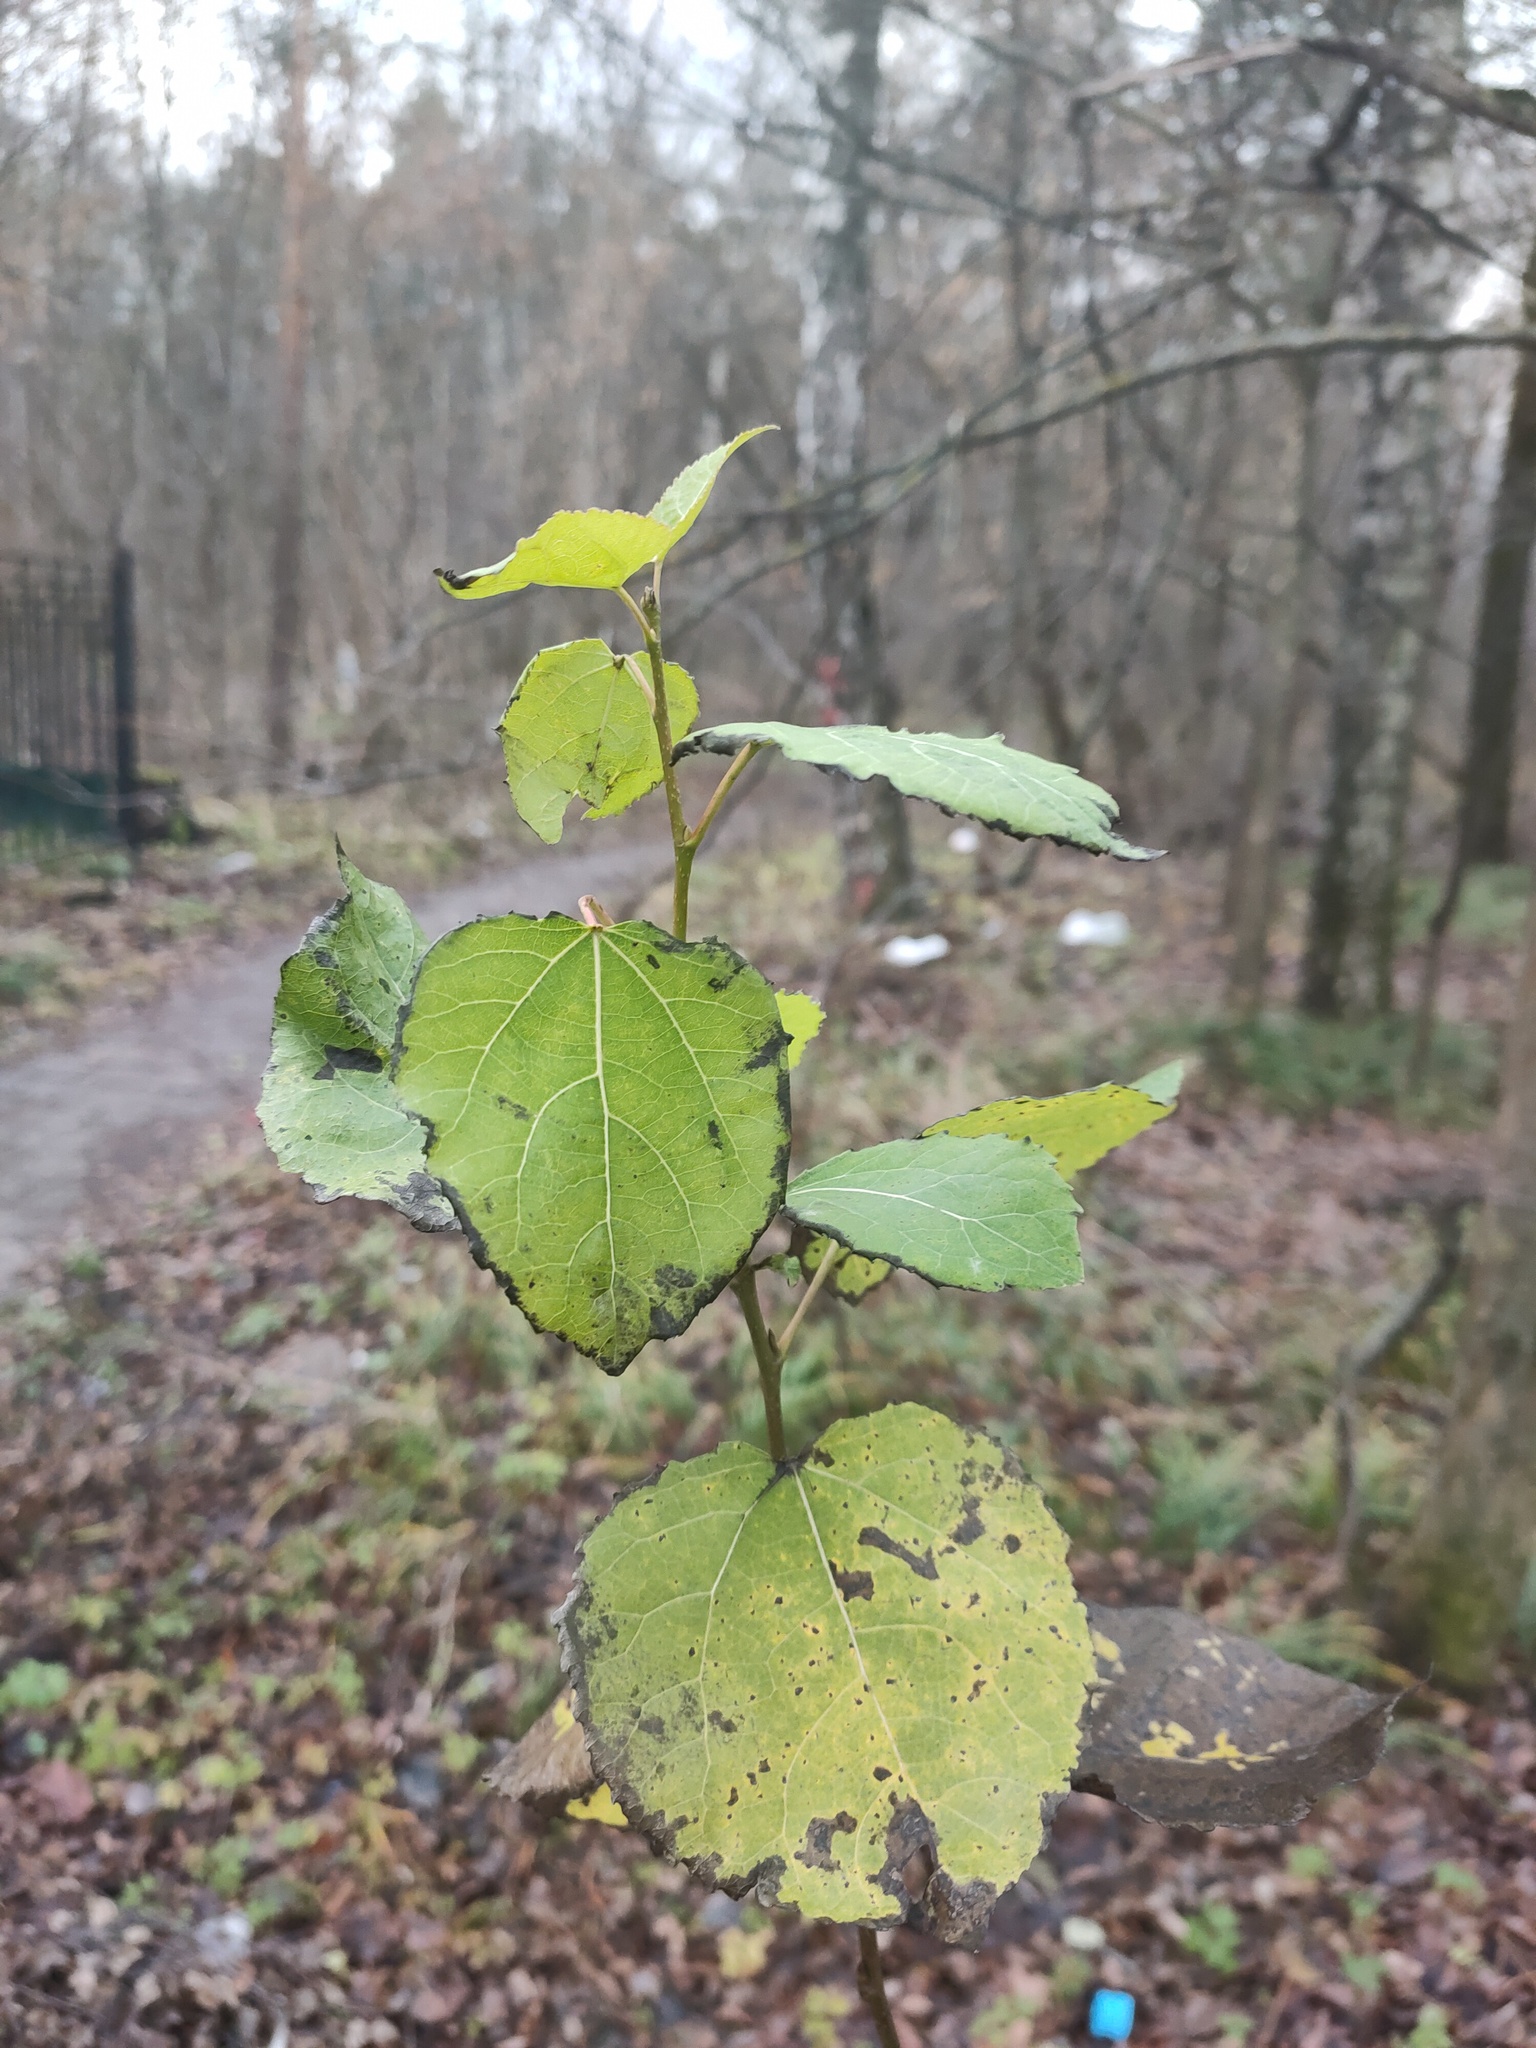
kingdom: Plantae
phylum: Tracheophyta
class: Magnoliopsida
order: Malpighiales
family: Salicaceae
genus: Populus
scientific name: Populus tremula
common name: European aspen
